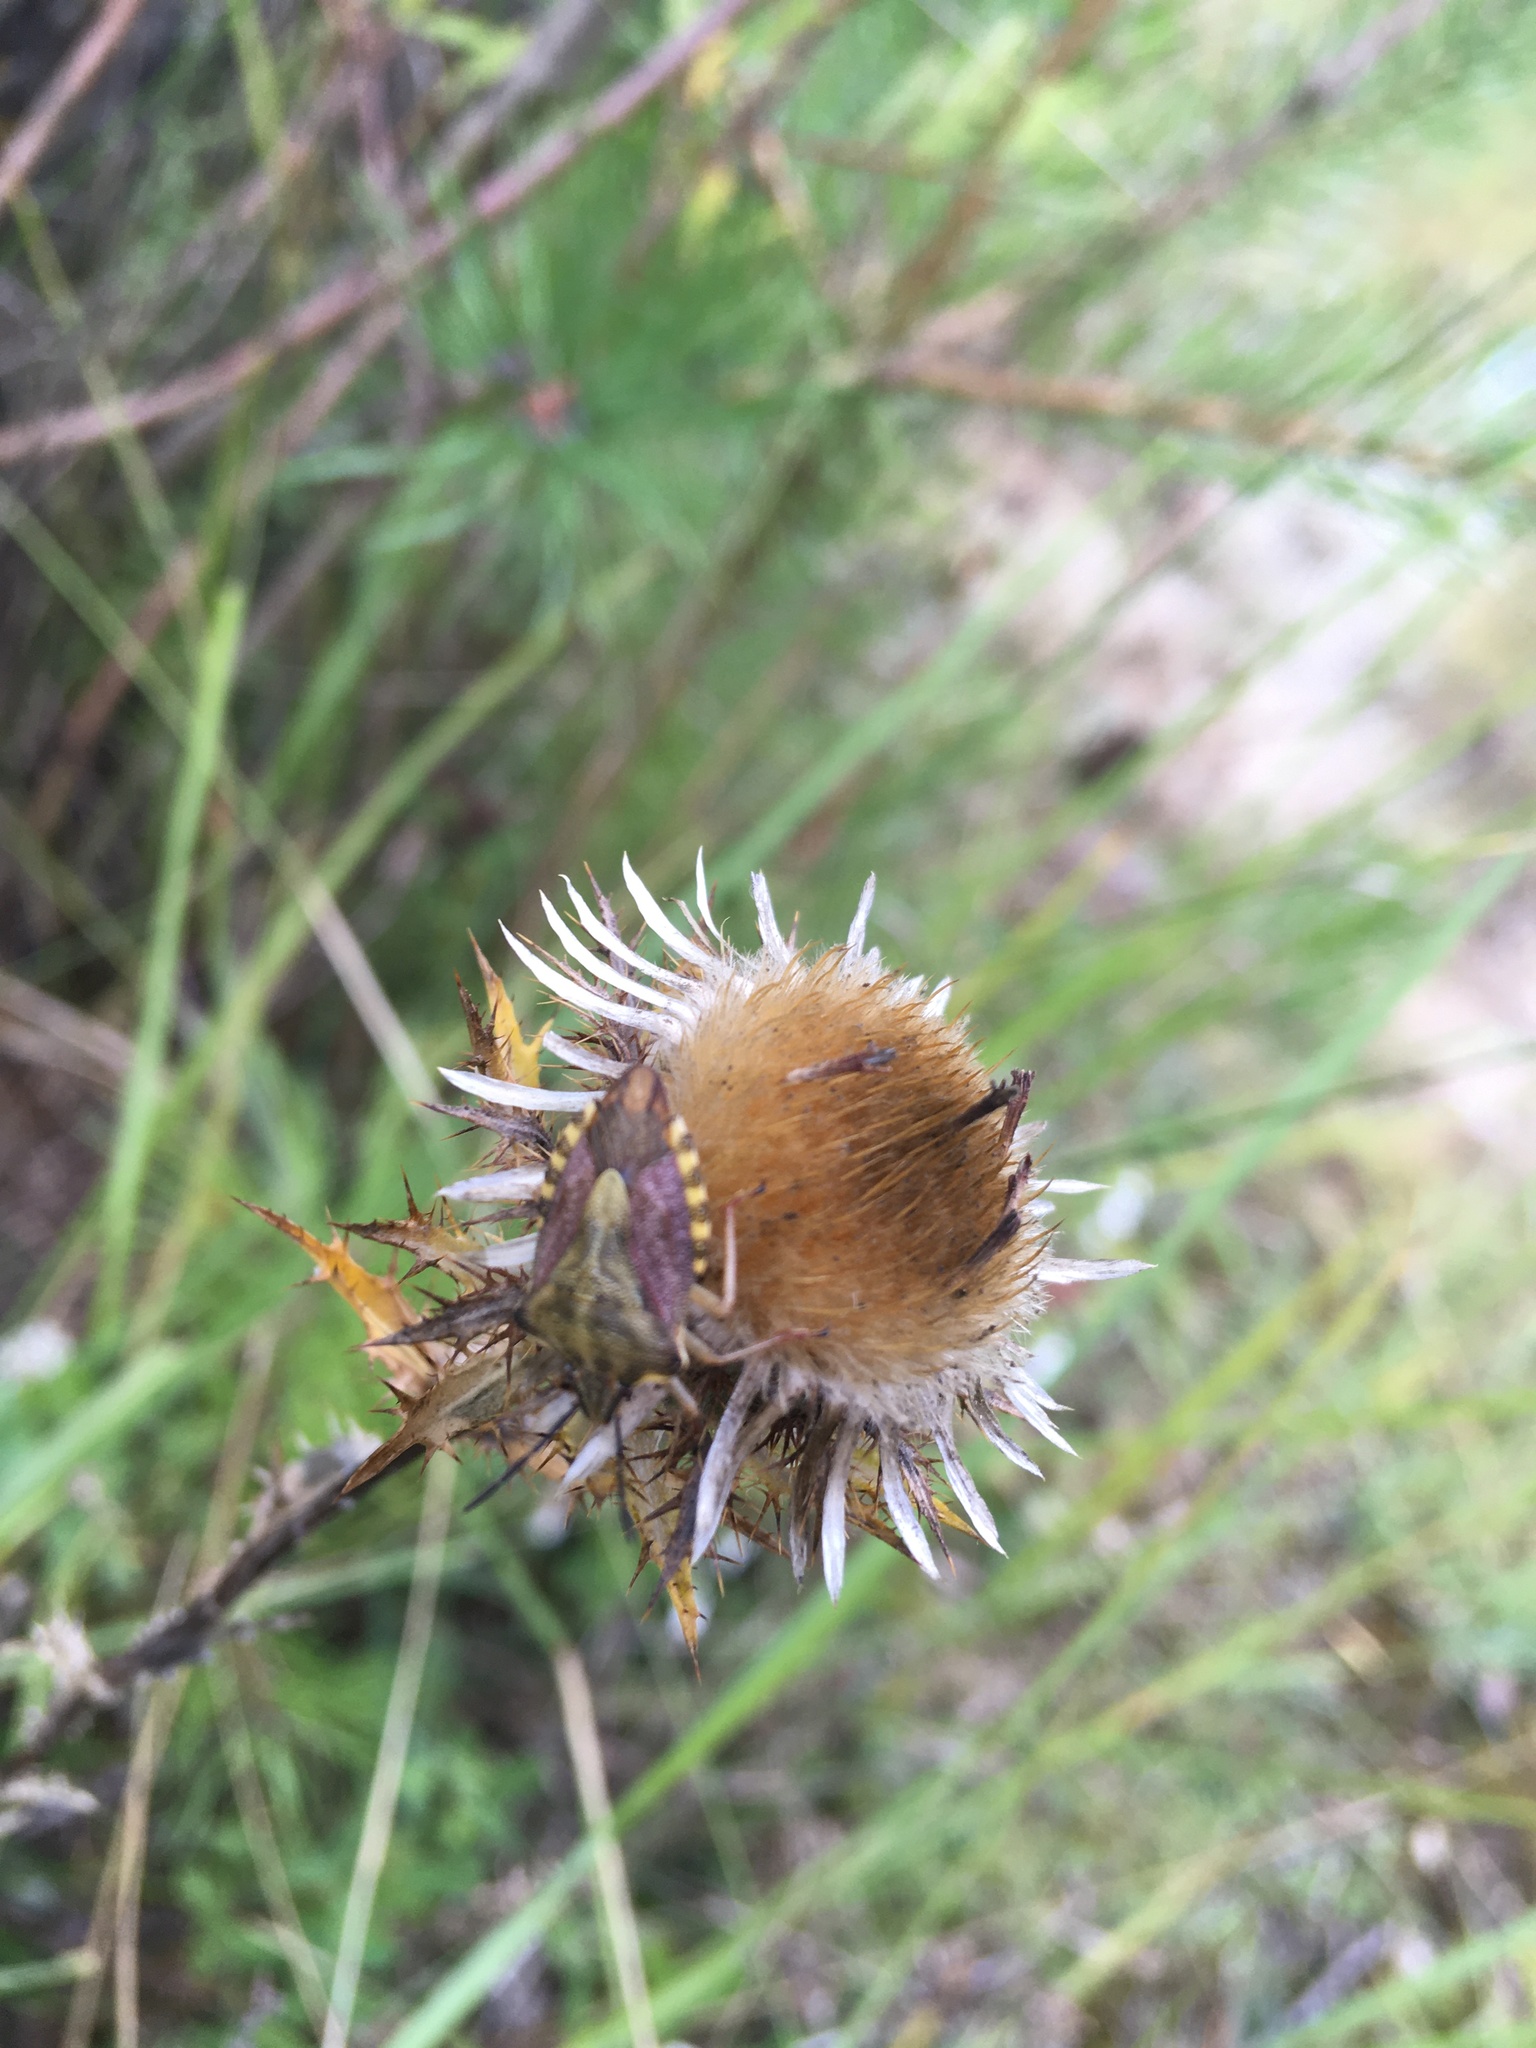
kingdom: Plantae
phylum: Tracheophyta
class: Magnoliopsida
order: Asterales
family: Asteraceae
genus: Carlina
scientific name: Carlina vulgaris
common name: Carline thistle
